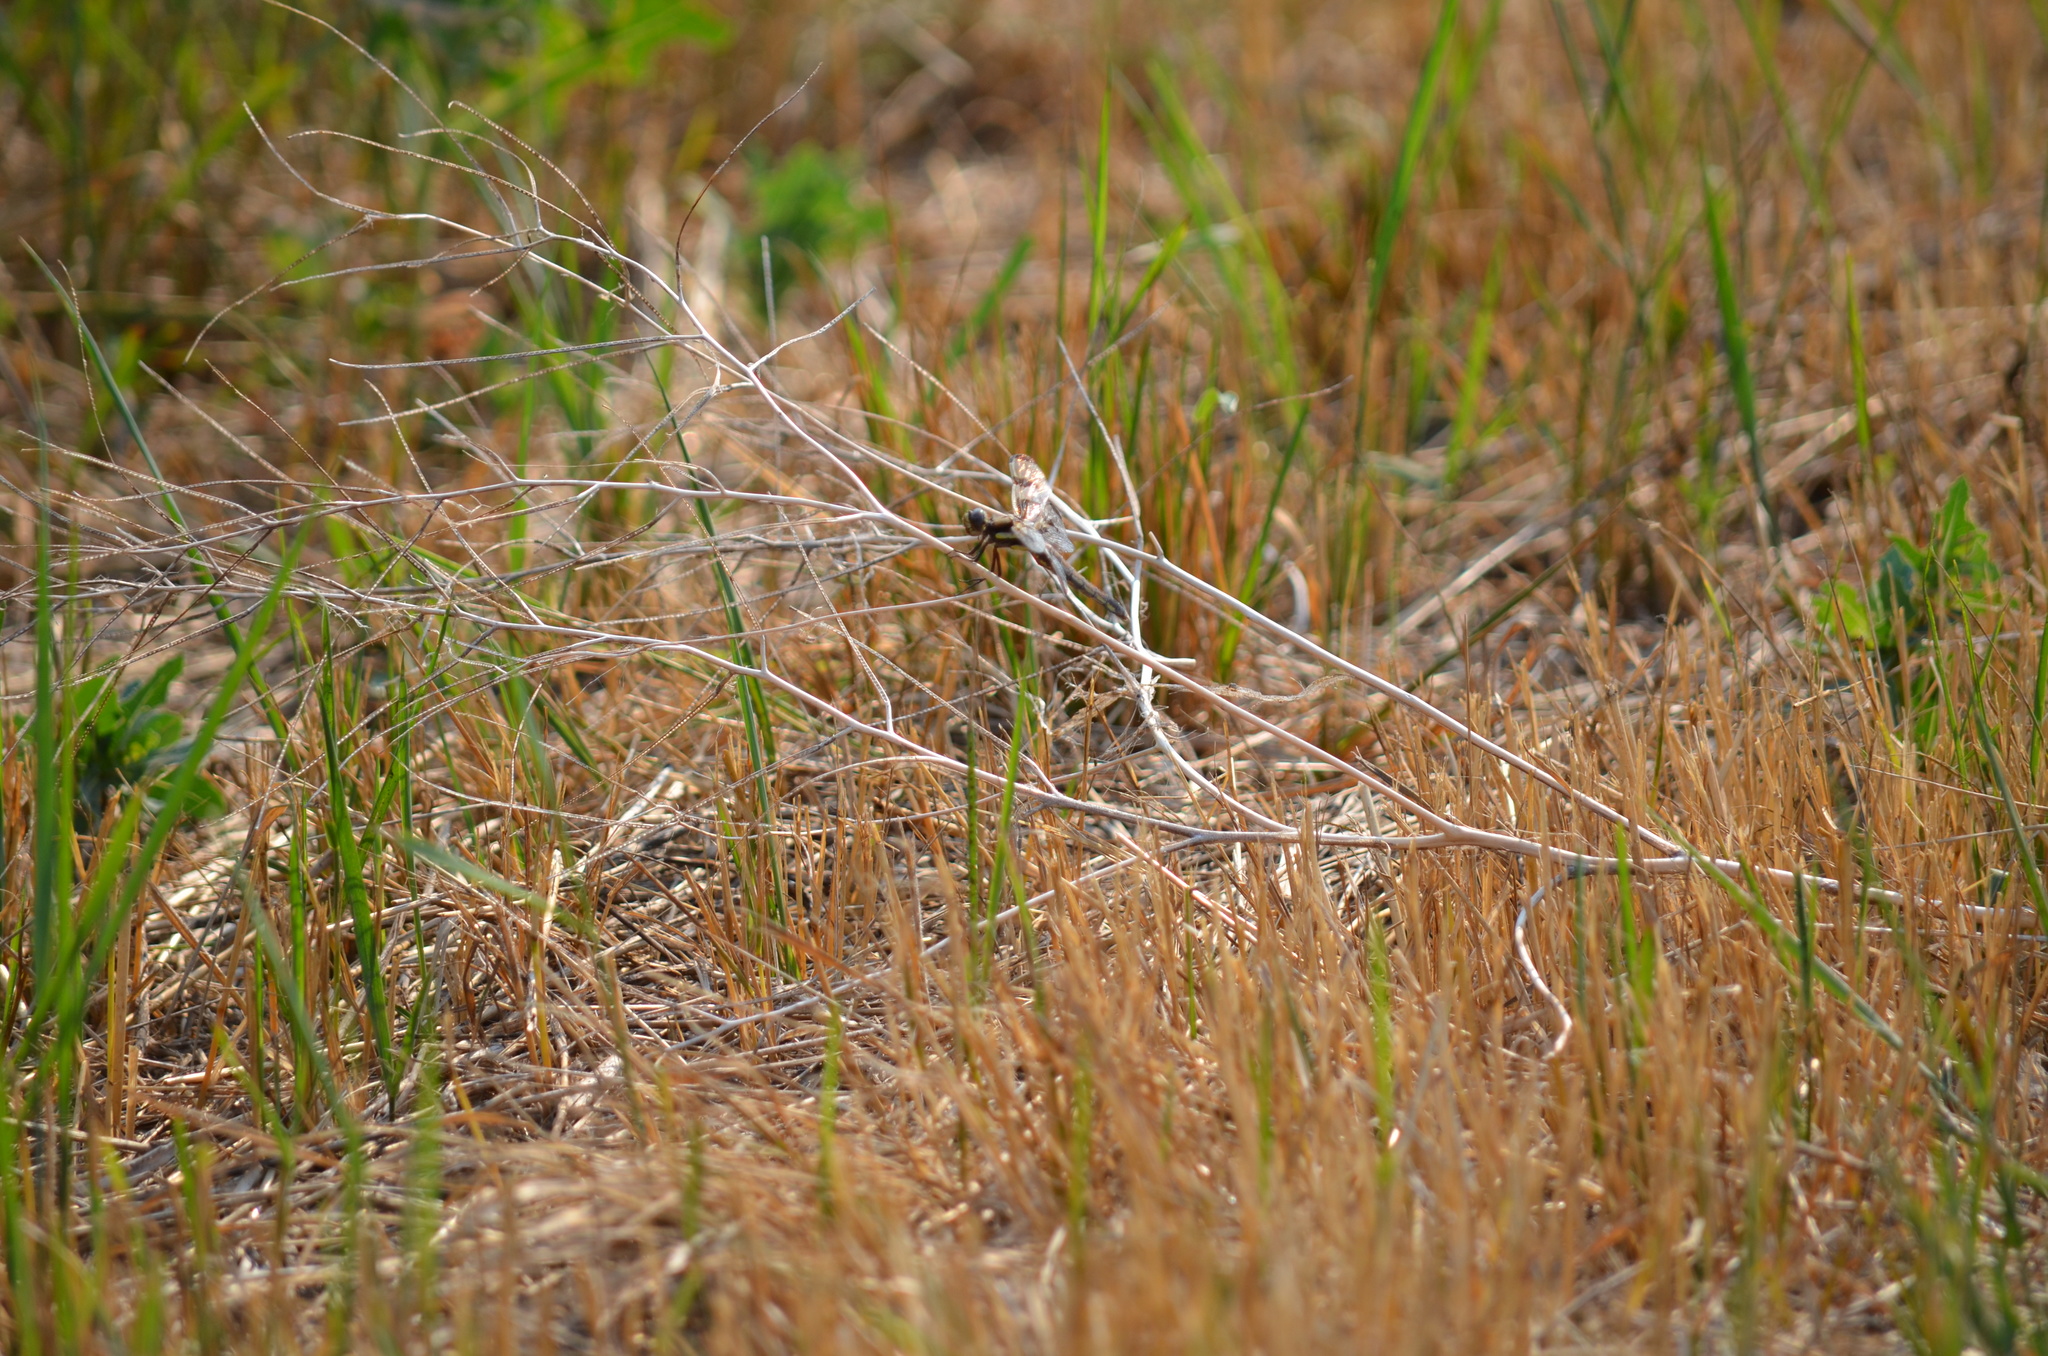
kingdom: Animalia
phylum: Arthropoda
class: Insecta
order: Odonata
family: Libellulidae
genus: Libellula
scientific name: Libellula quadrimaculata
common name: Four-spotted chaser
